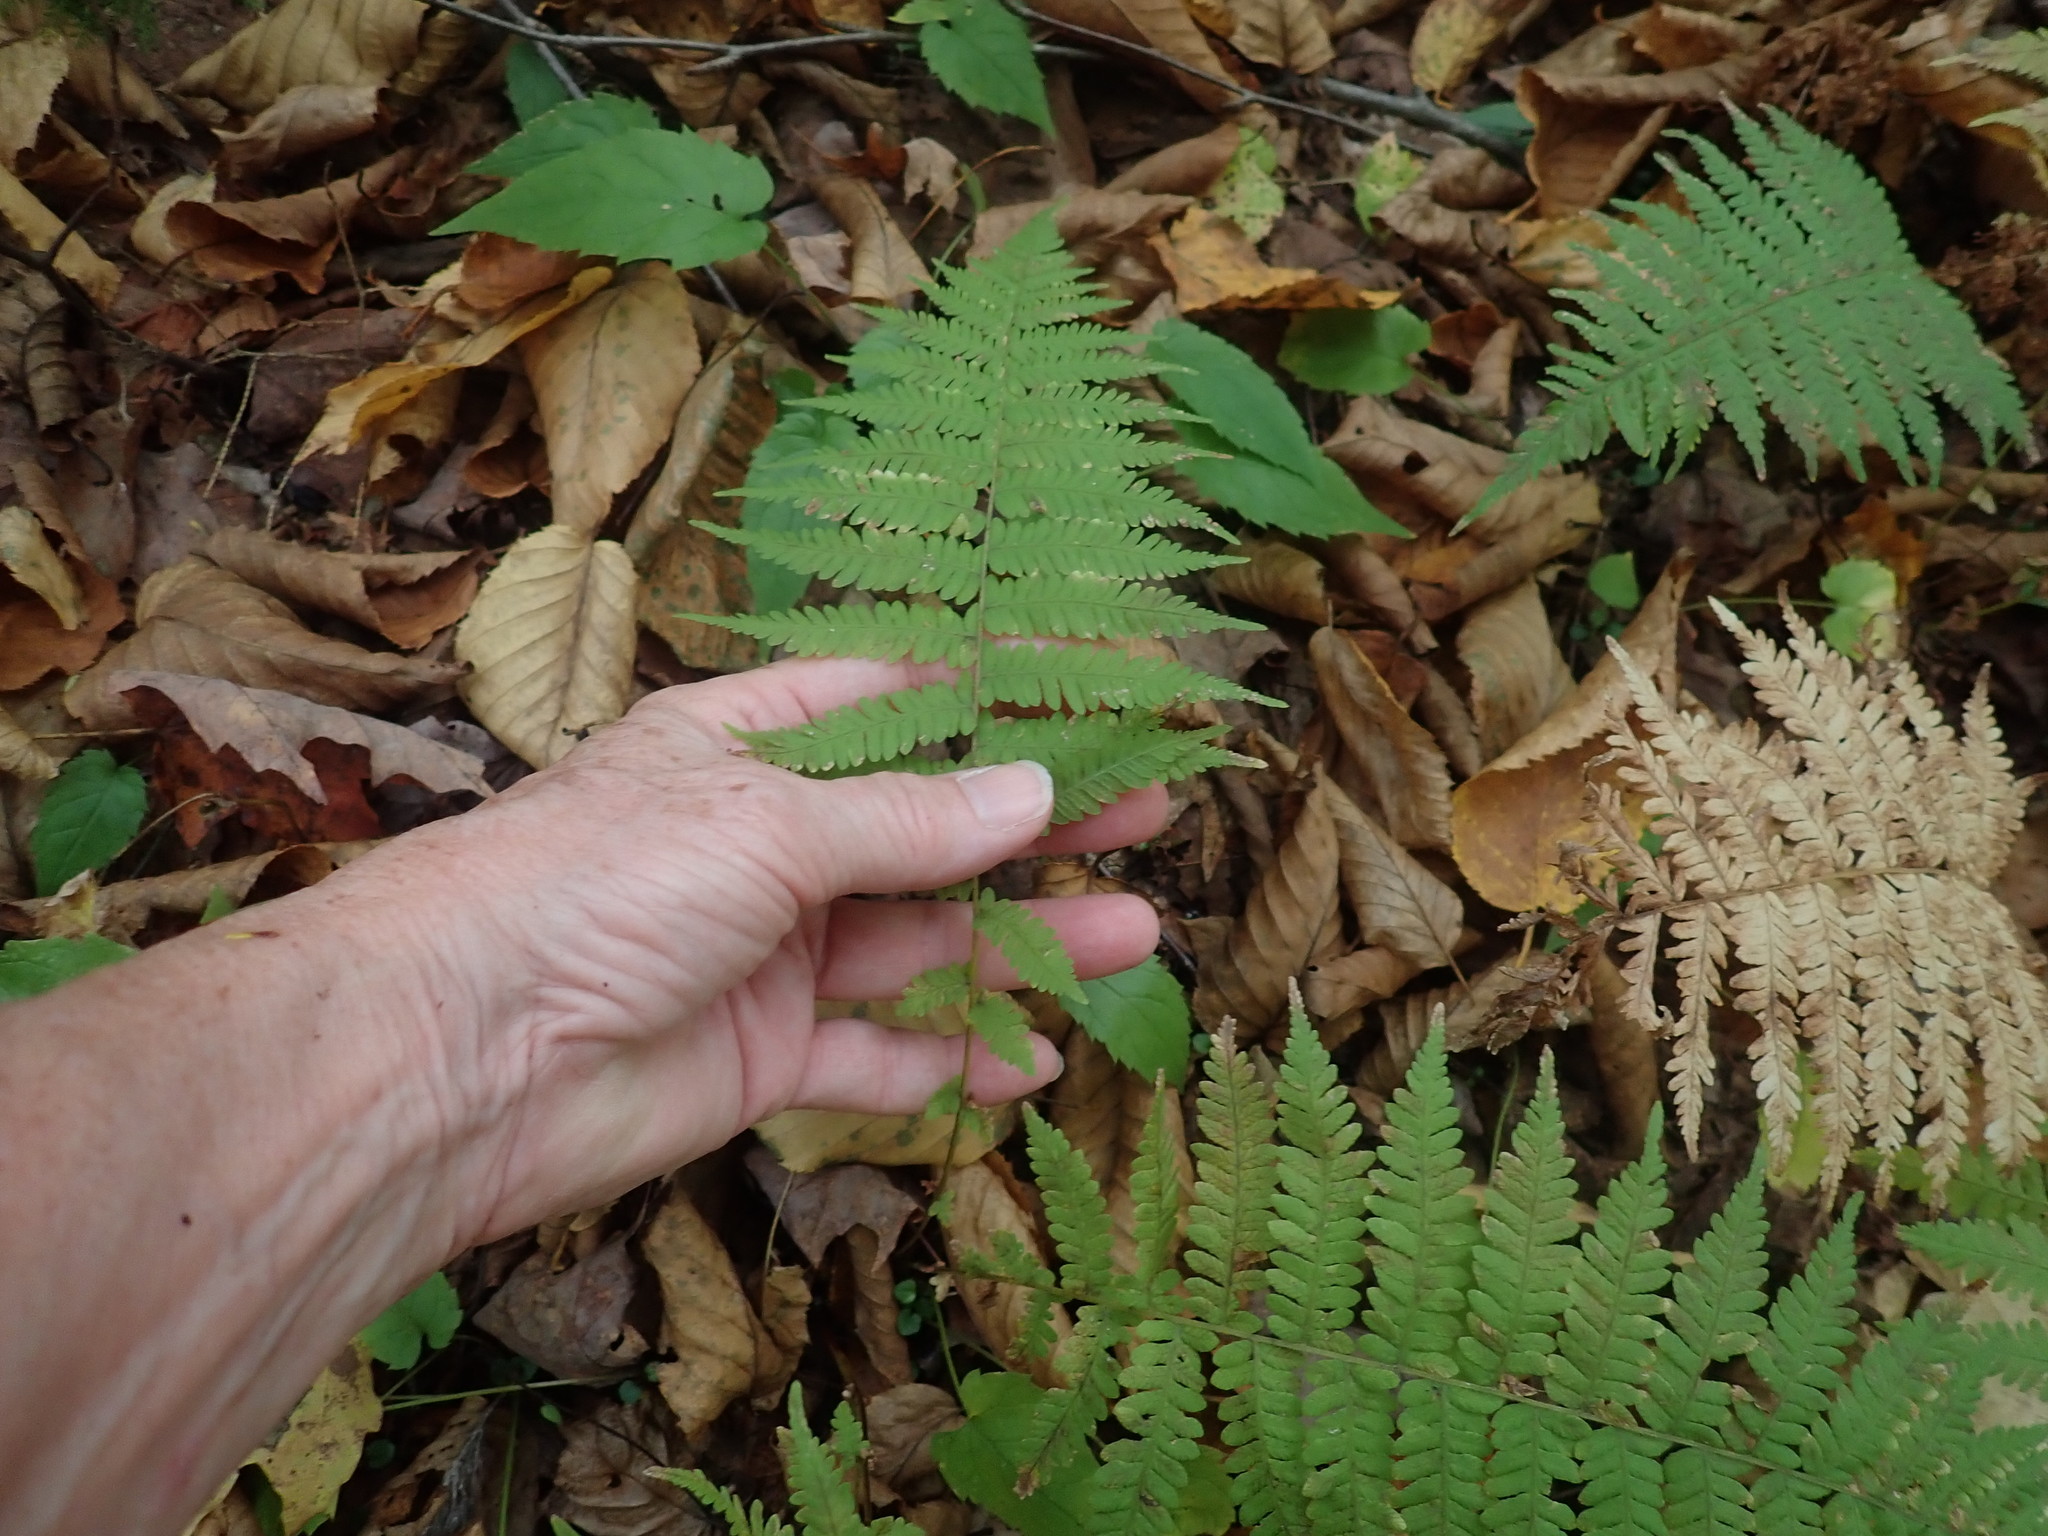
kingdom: Plantae
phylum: Tracheophyta
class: Polypodiopsida
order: Polypodiales
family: Thelypteridaceae
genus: Amauropelta
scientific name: Amauropelta noveboracensis
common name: New york fern
